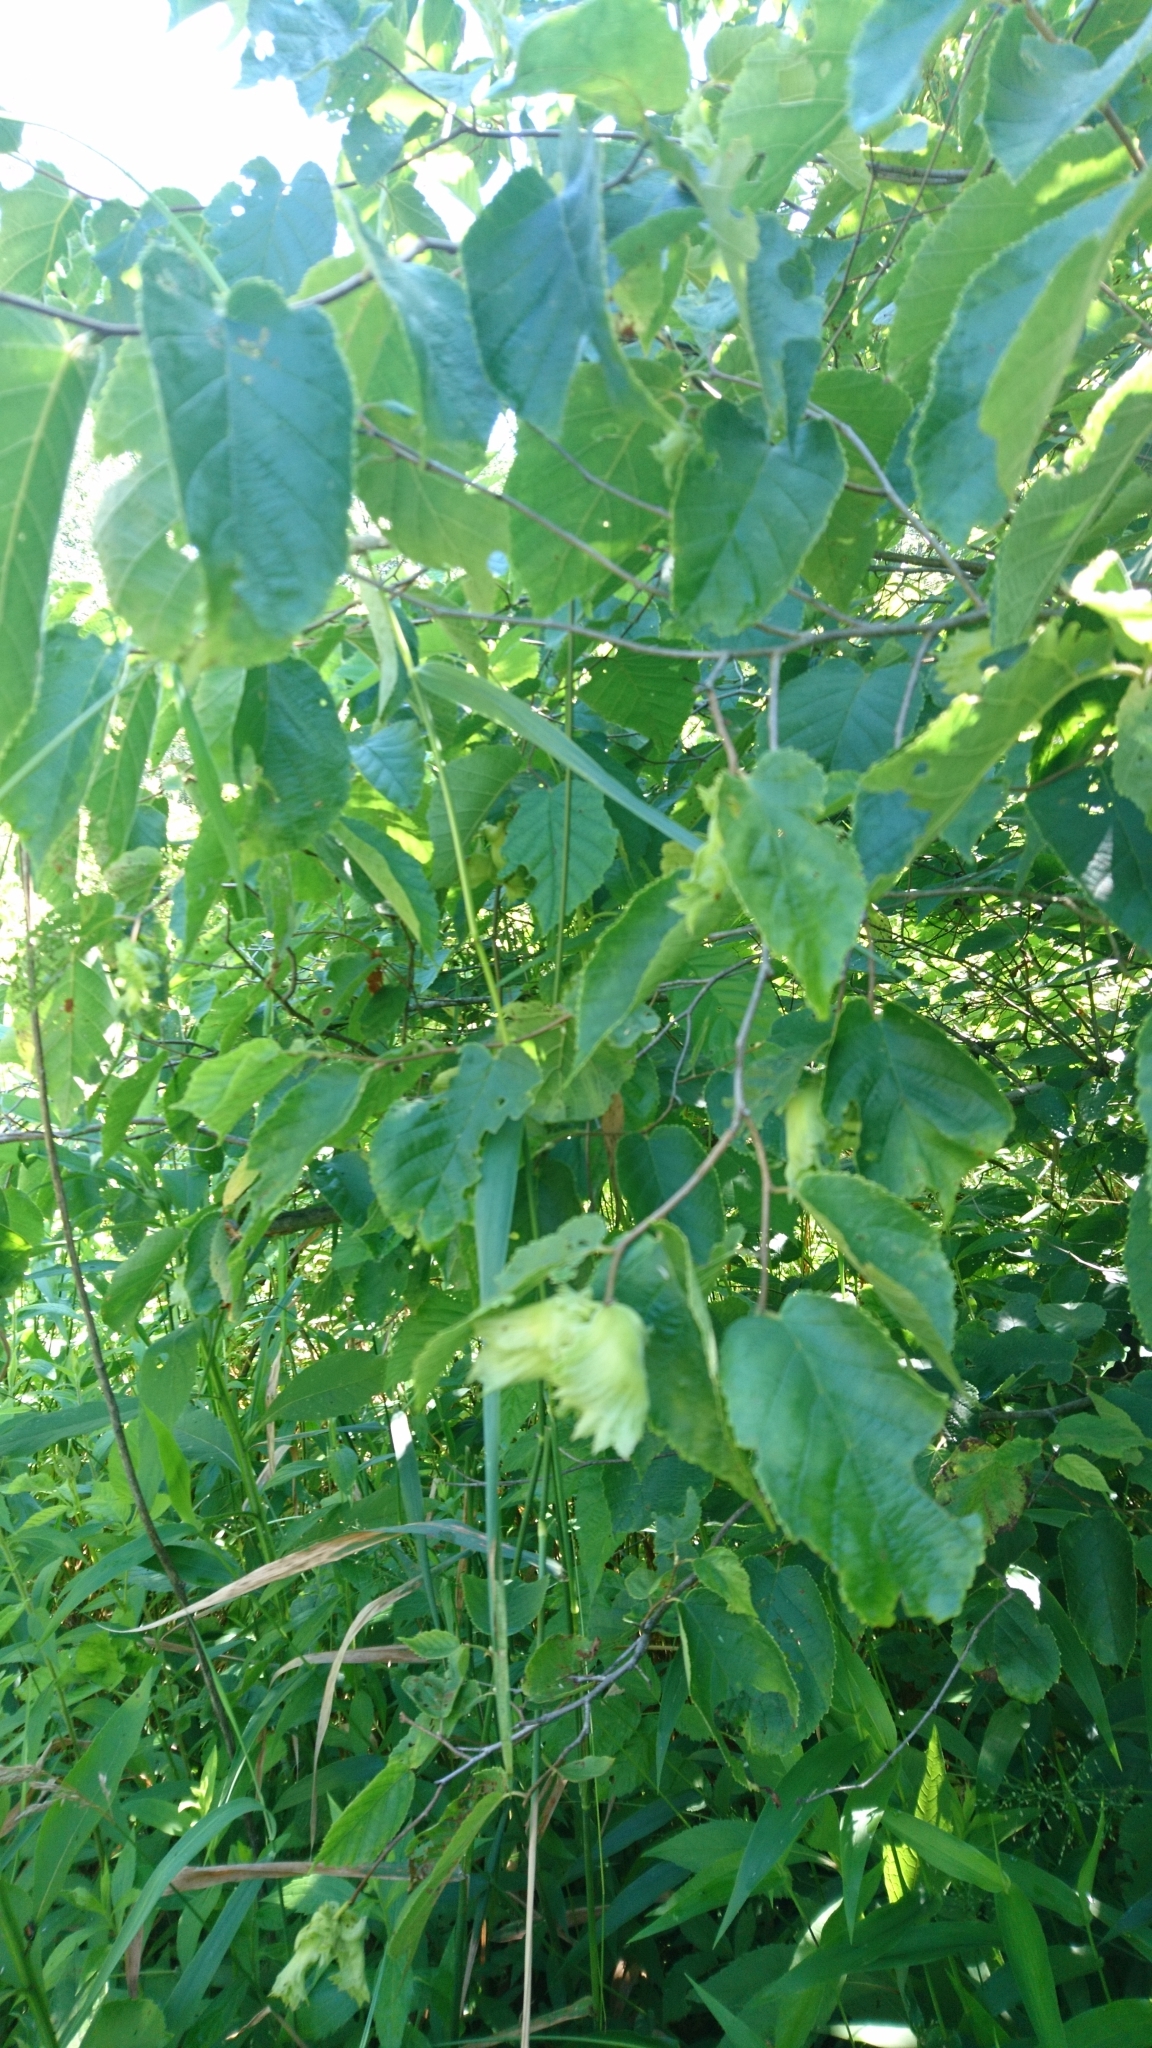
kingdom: Plantae
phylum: Tracheophyta
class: Magnoliopsida
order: Fagales
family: Betulaceae
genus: Corylus
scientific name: Corylus americana
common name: American hazel
